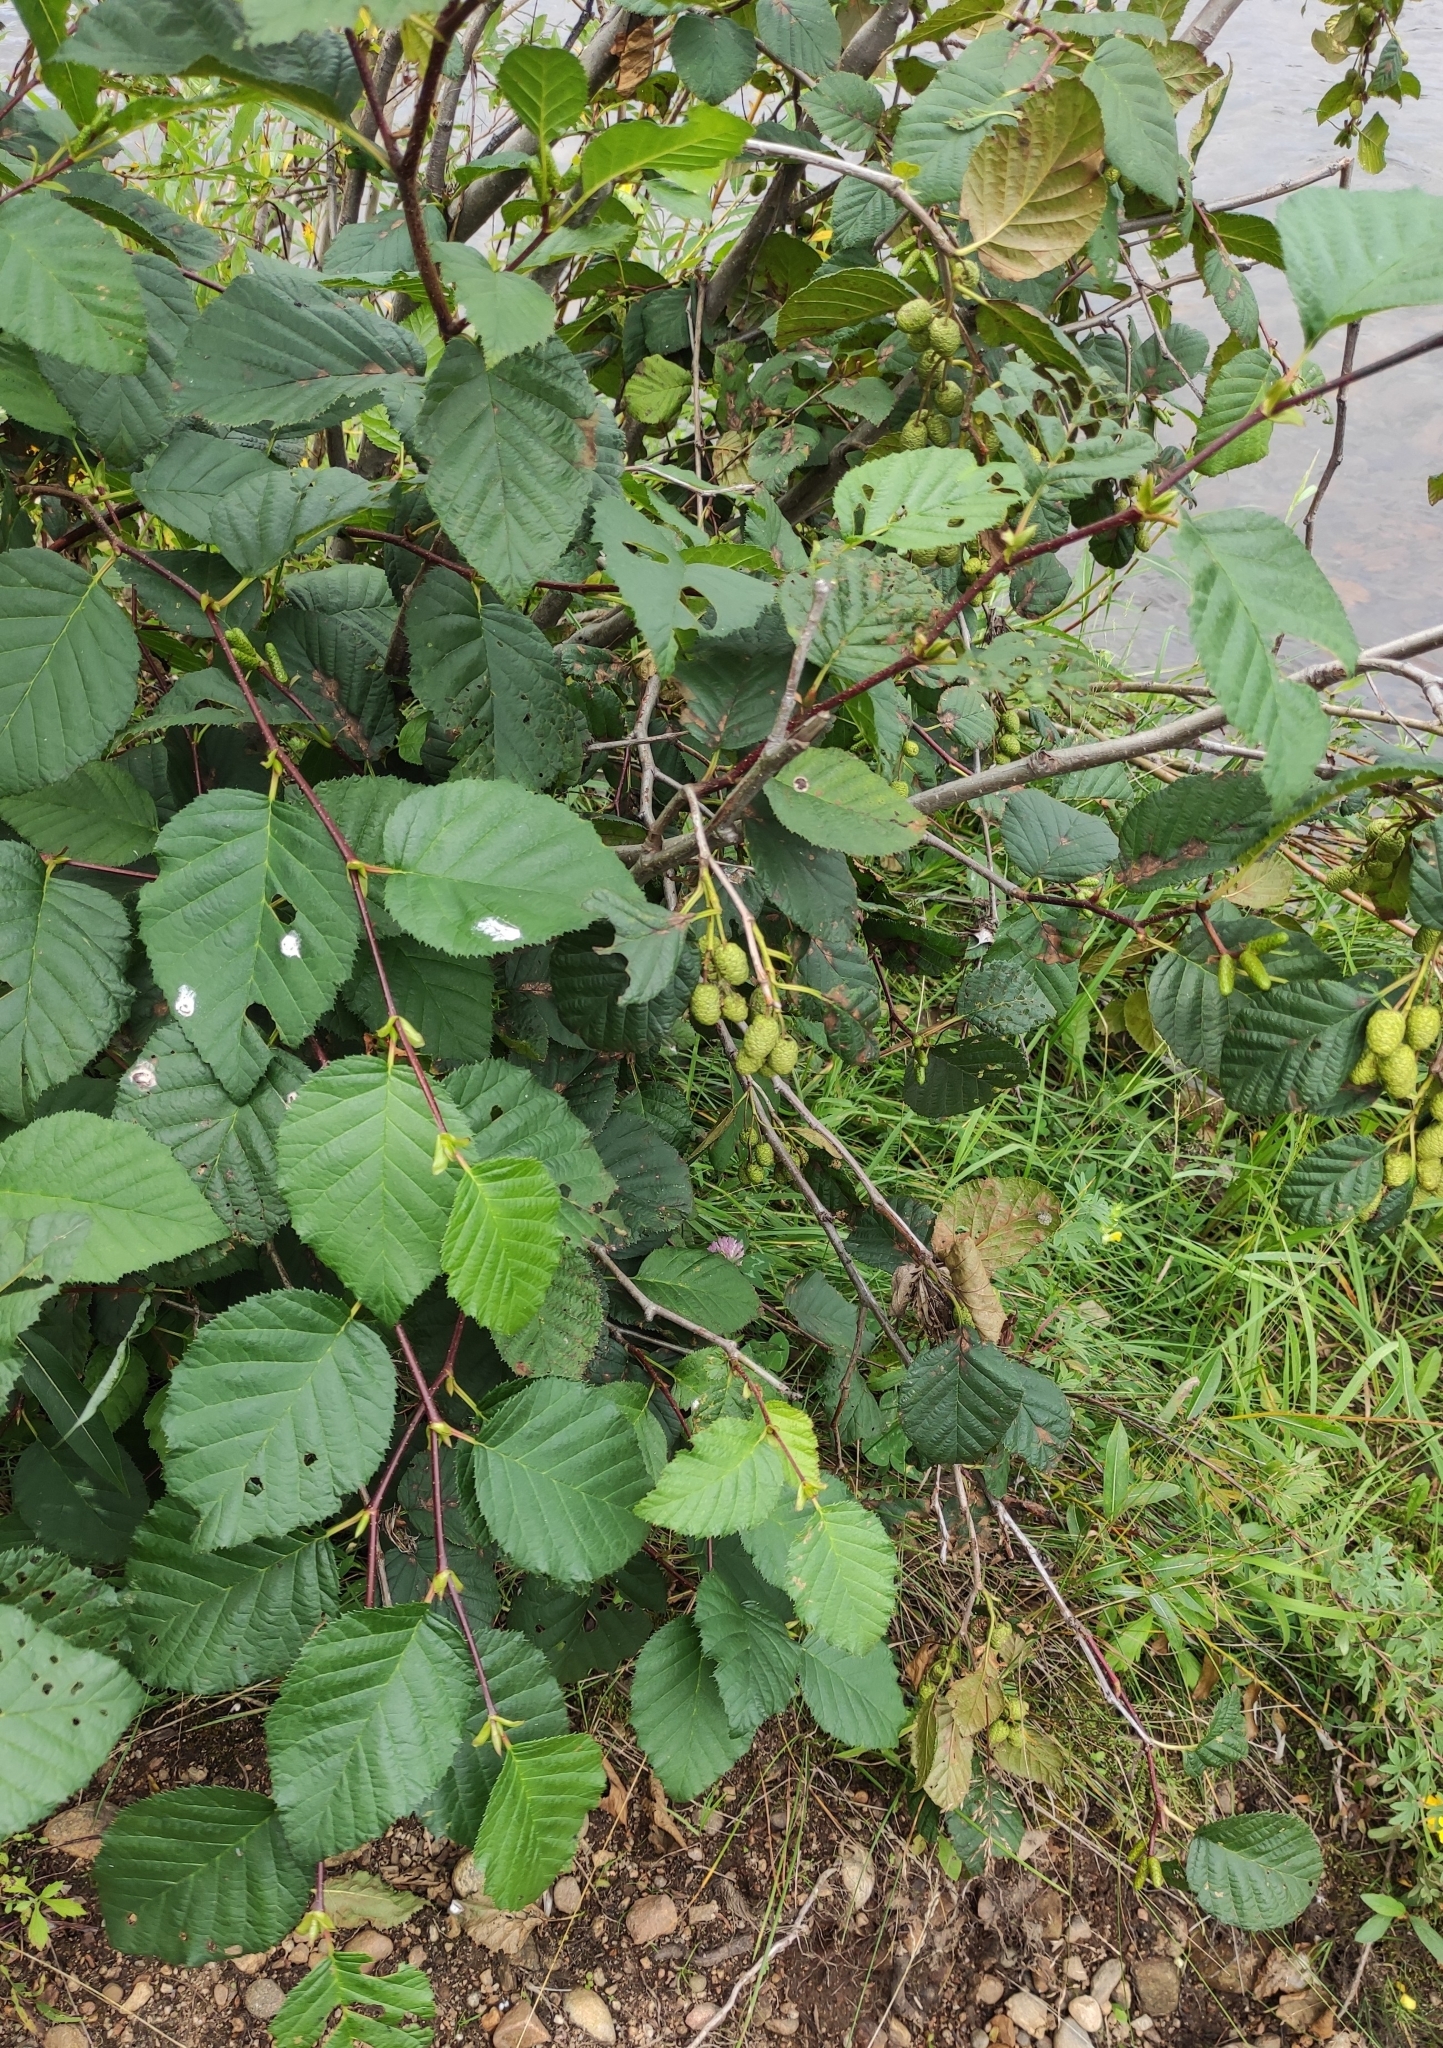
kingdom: Plantae
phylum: Tracheophyta
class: Magnoliopsida
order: Fagales
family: Betulaceae
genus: Alnus
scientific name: Alnus alnobetula
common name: Green alder
